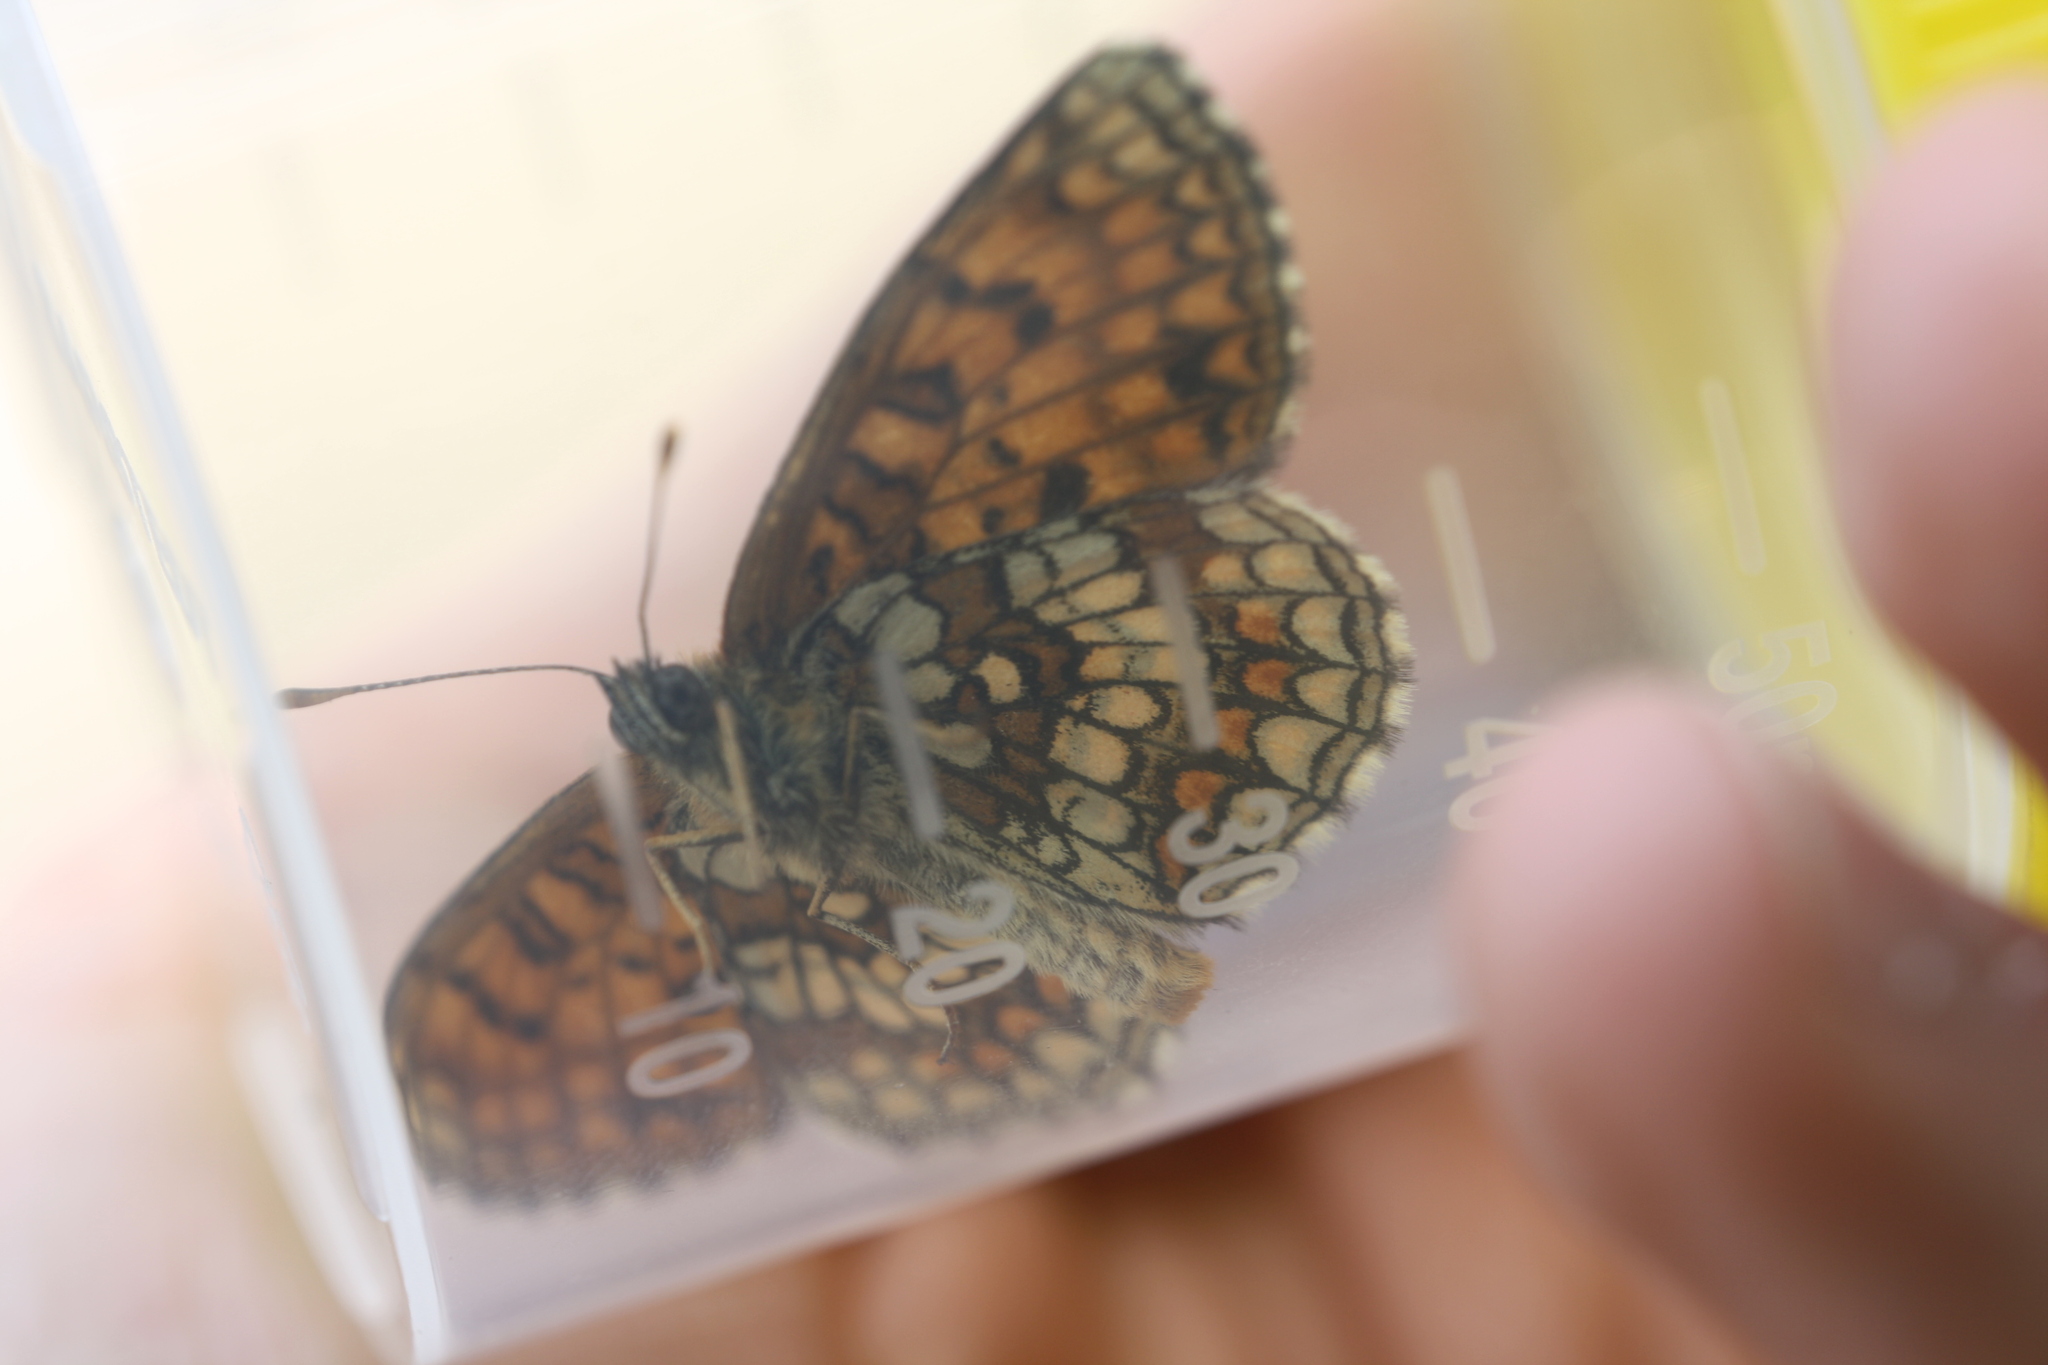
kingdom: Animalia
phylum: Arthropoda
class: Insecta
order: Lepidoptera
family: Nymphalidae
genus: Melitaea
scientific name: Melitaea athalia
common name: Heath fritillary
